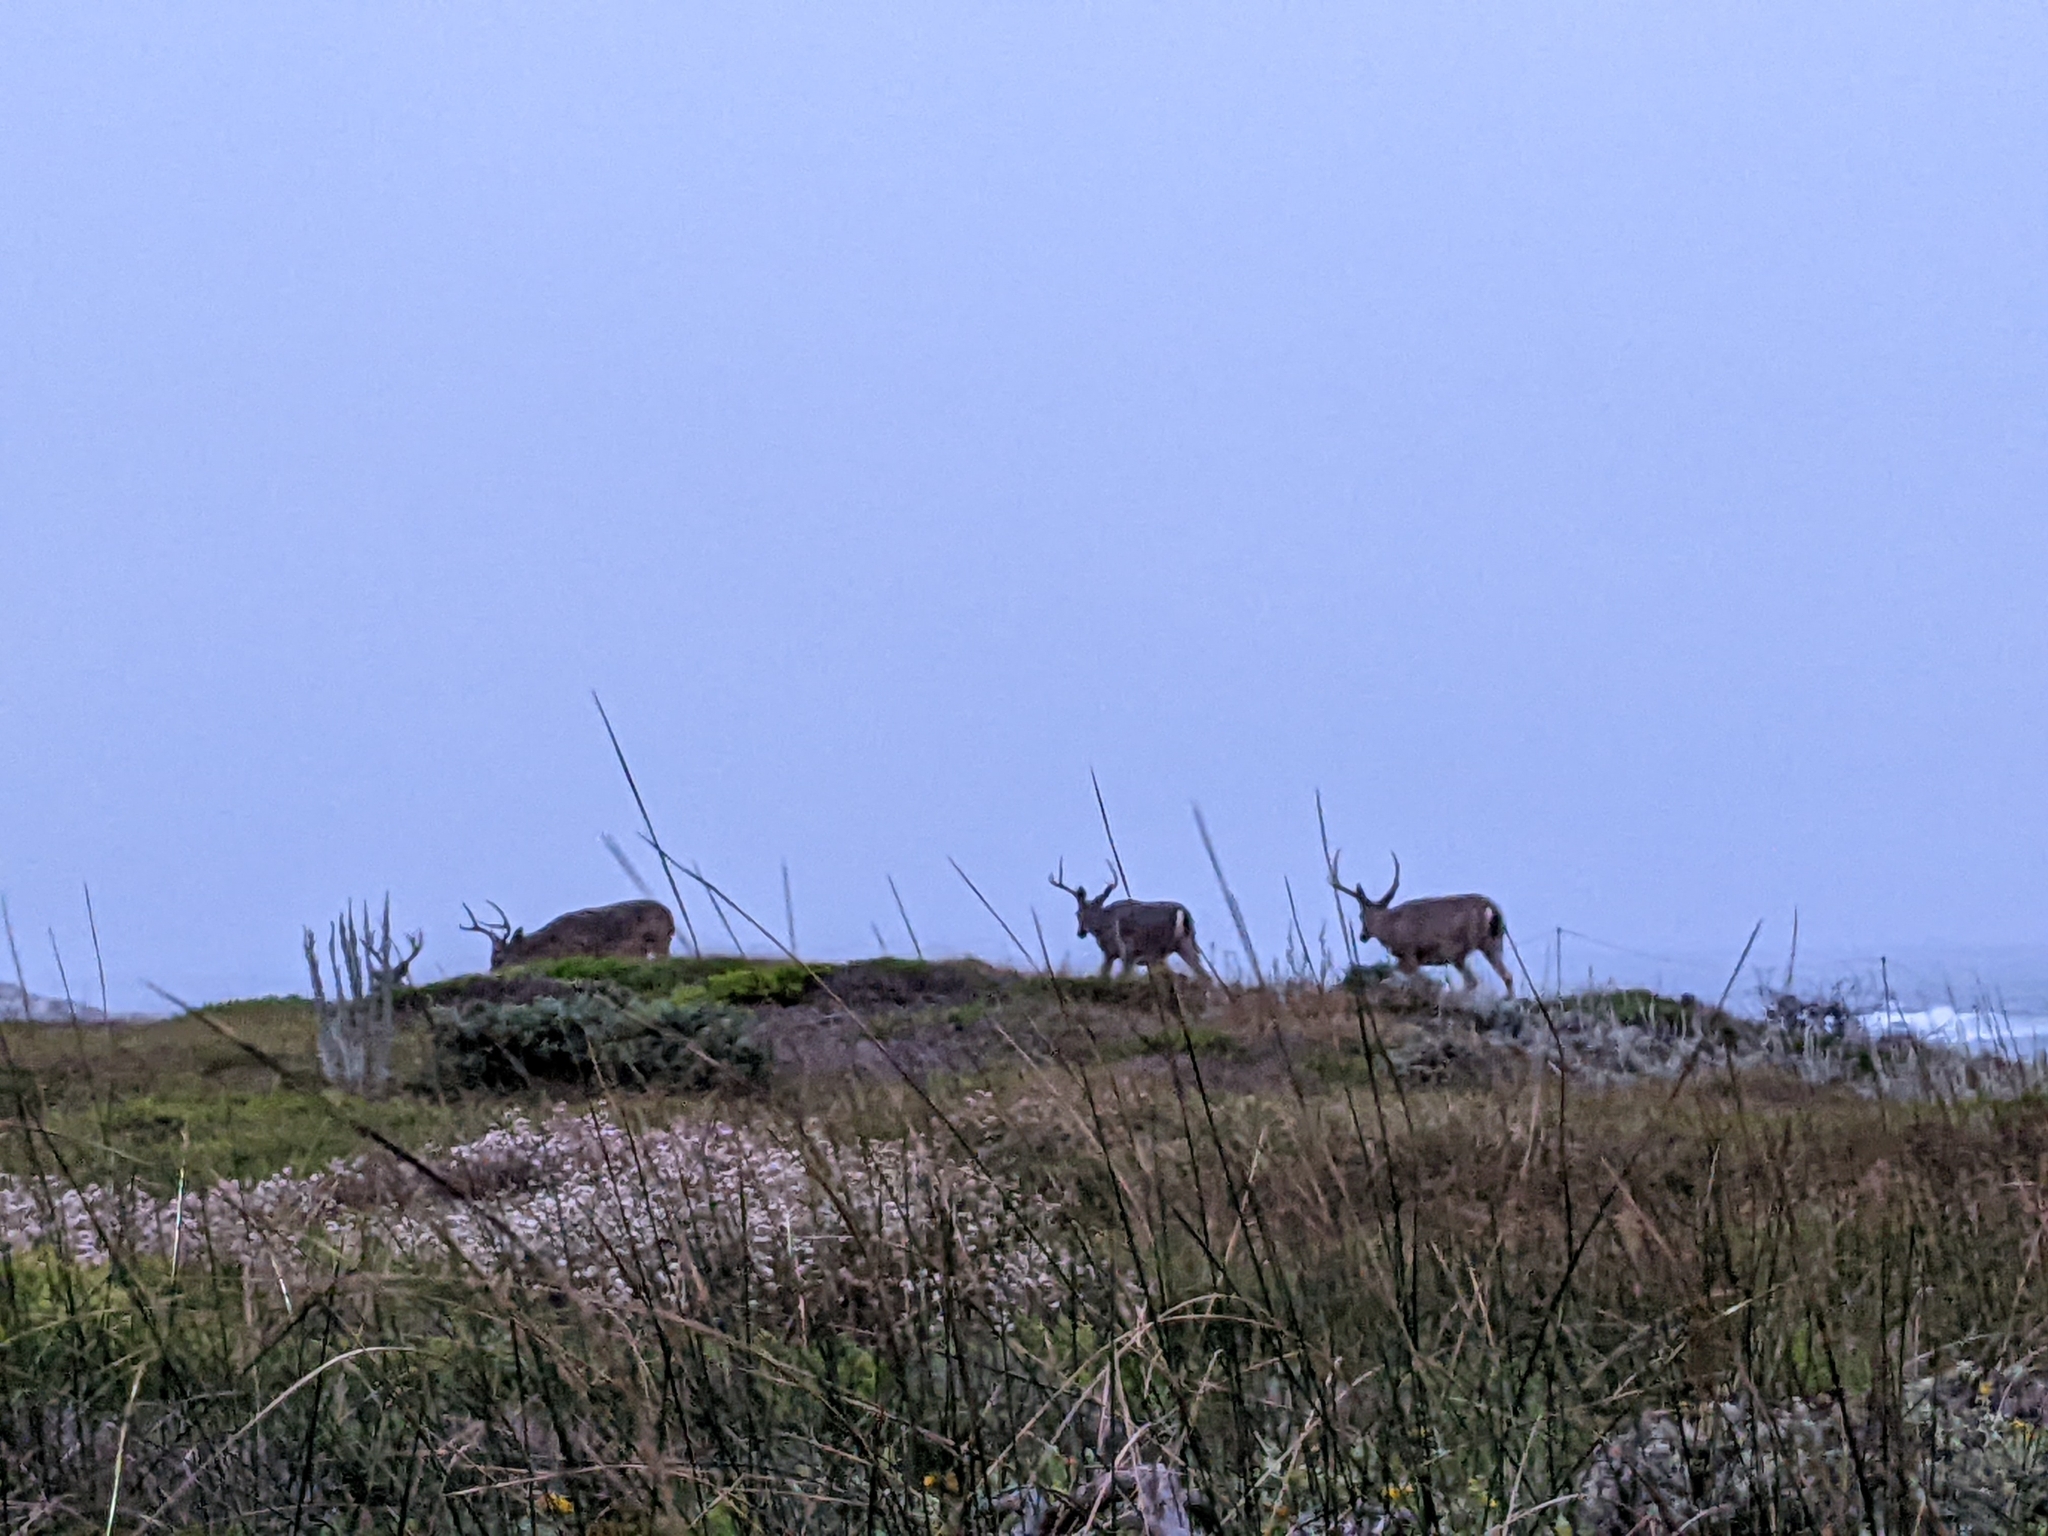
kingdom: Animalia
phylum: Chordata
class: Mammalia
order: Artiodactyla
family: Cervidae
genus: Odocoileus
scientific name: Odocoileus hemionus
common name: Mule deer
